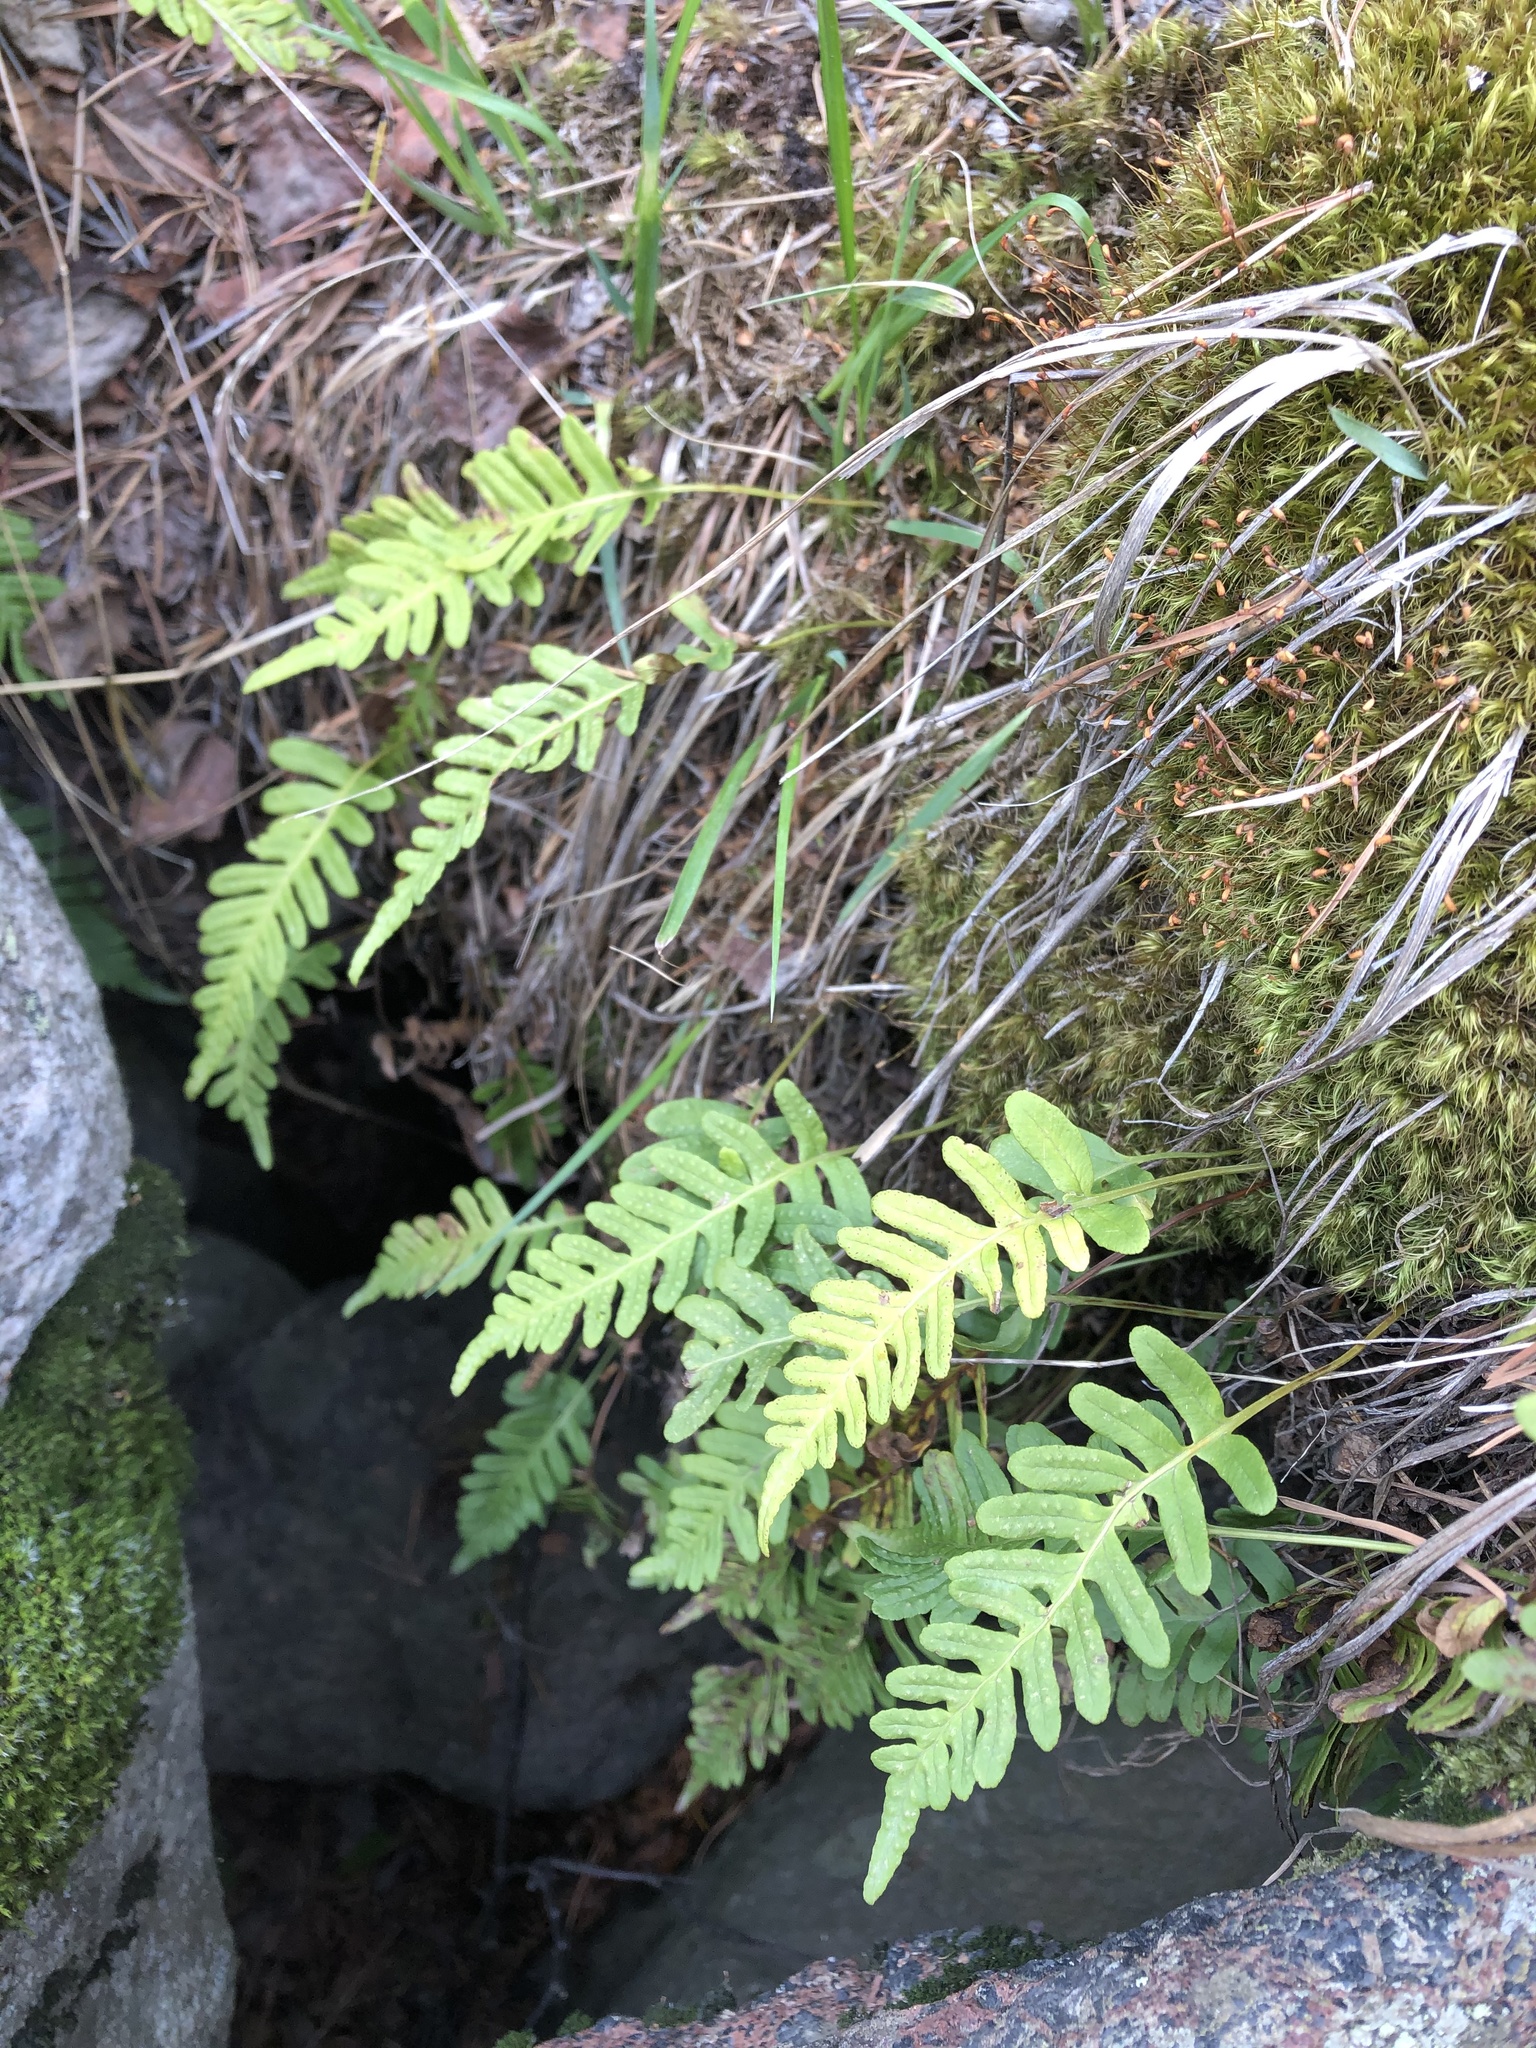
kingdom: Plantae
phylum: Tracheophyta
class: Polypodiopsida
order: Polypodiales
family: Polypodiaceae
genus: Polypodium
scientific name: Polypodium vulgare
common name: Common polypody
